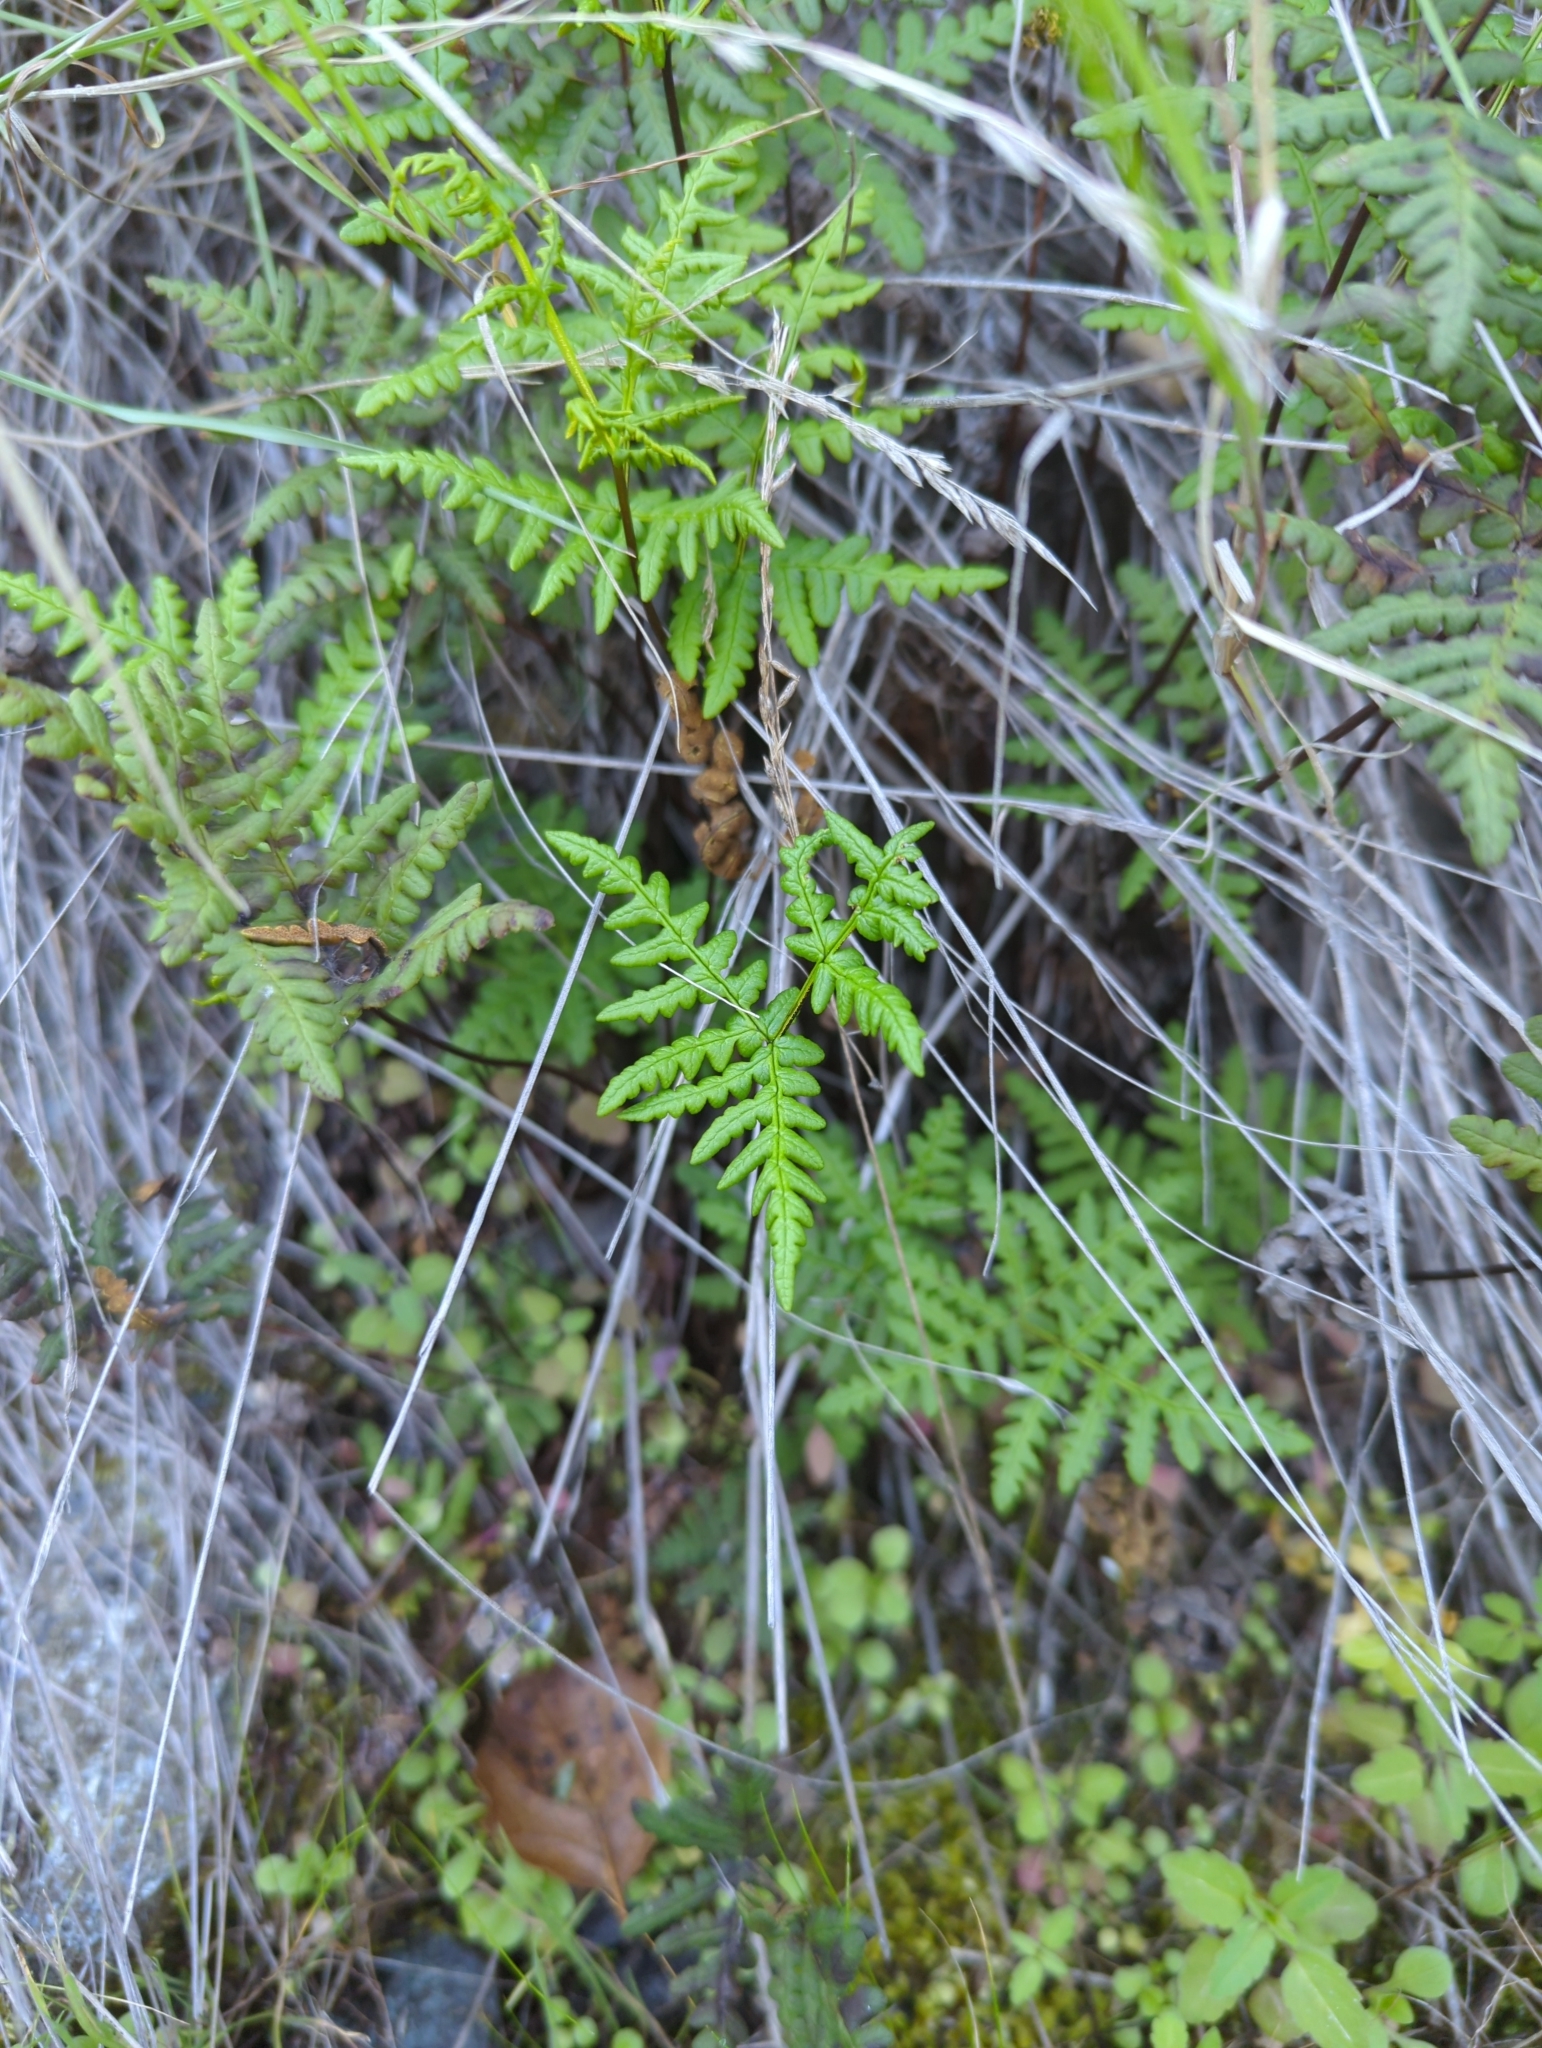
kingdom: Plantae
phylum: Tracheophyta
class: Polypodiopsida
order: Polypodiales
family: Pteridaceae
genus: Pentagramma
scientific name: Pentagramma triangularis
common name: Gold fern
